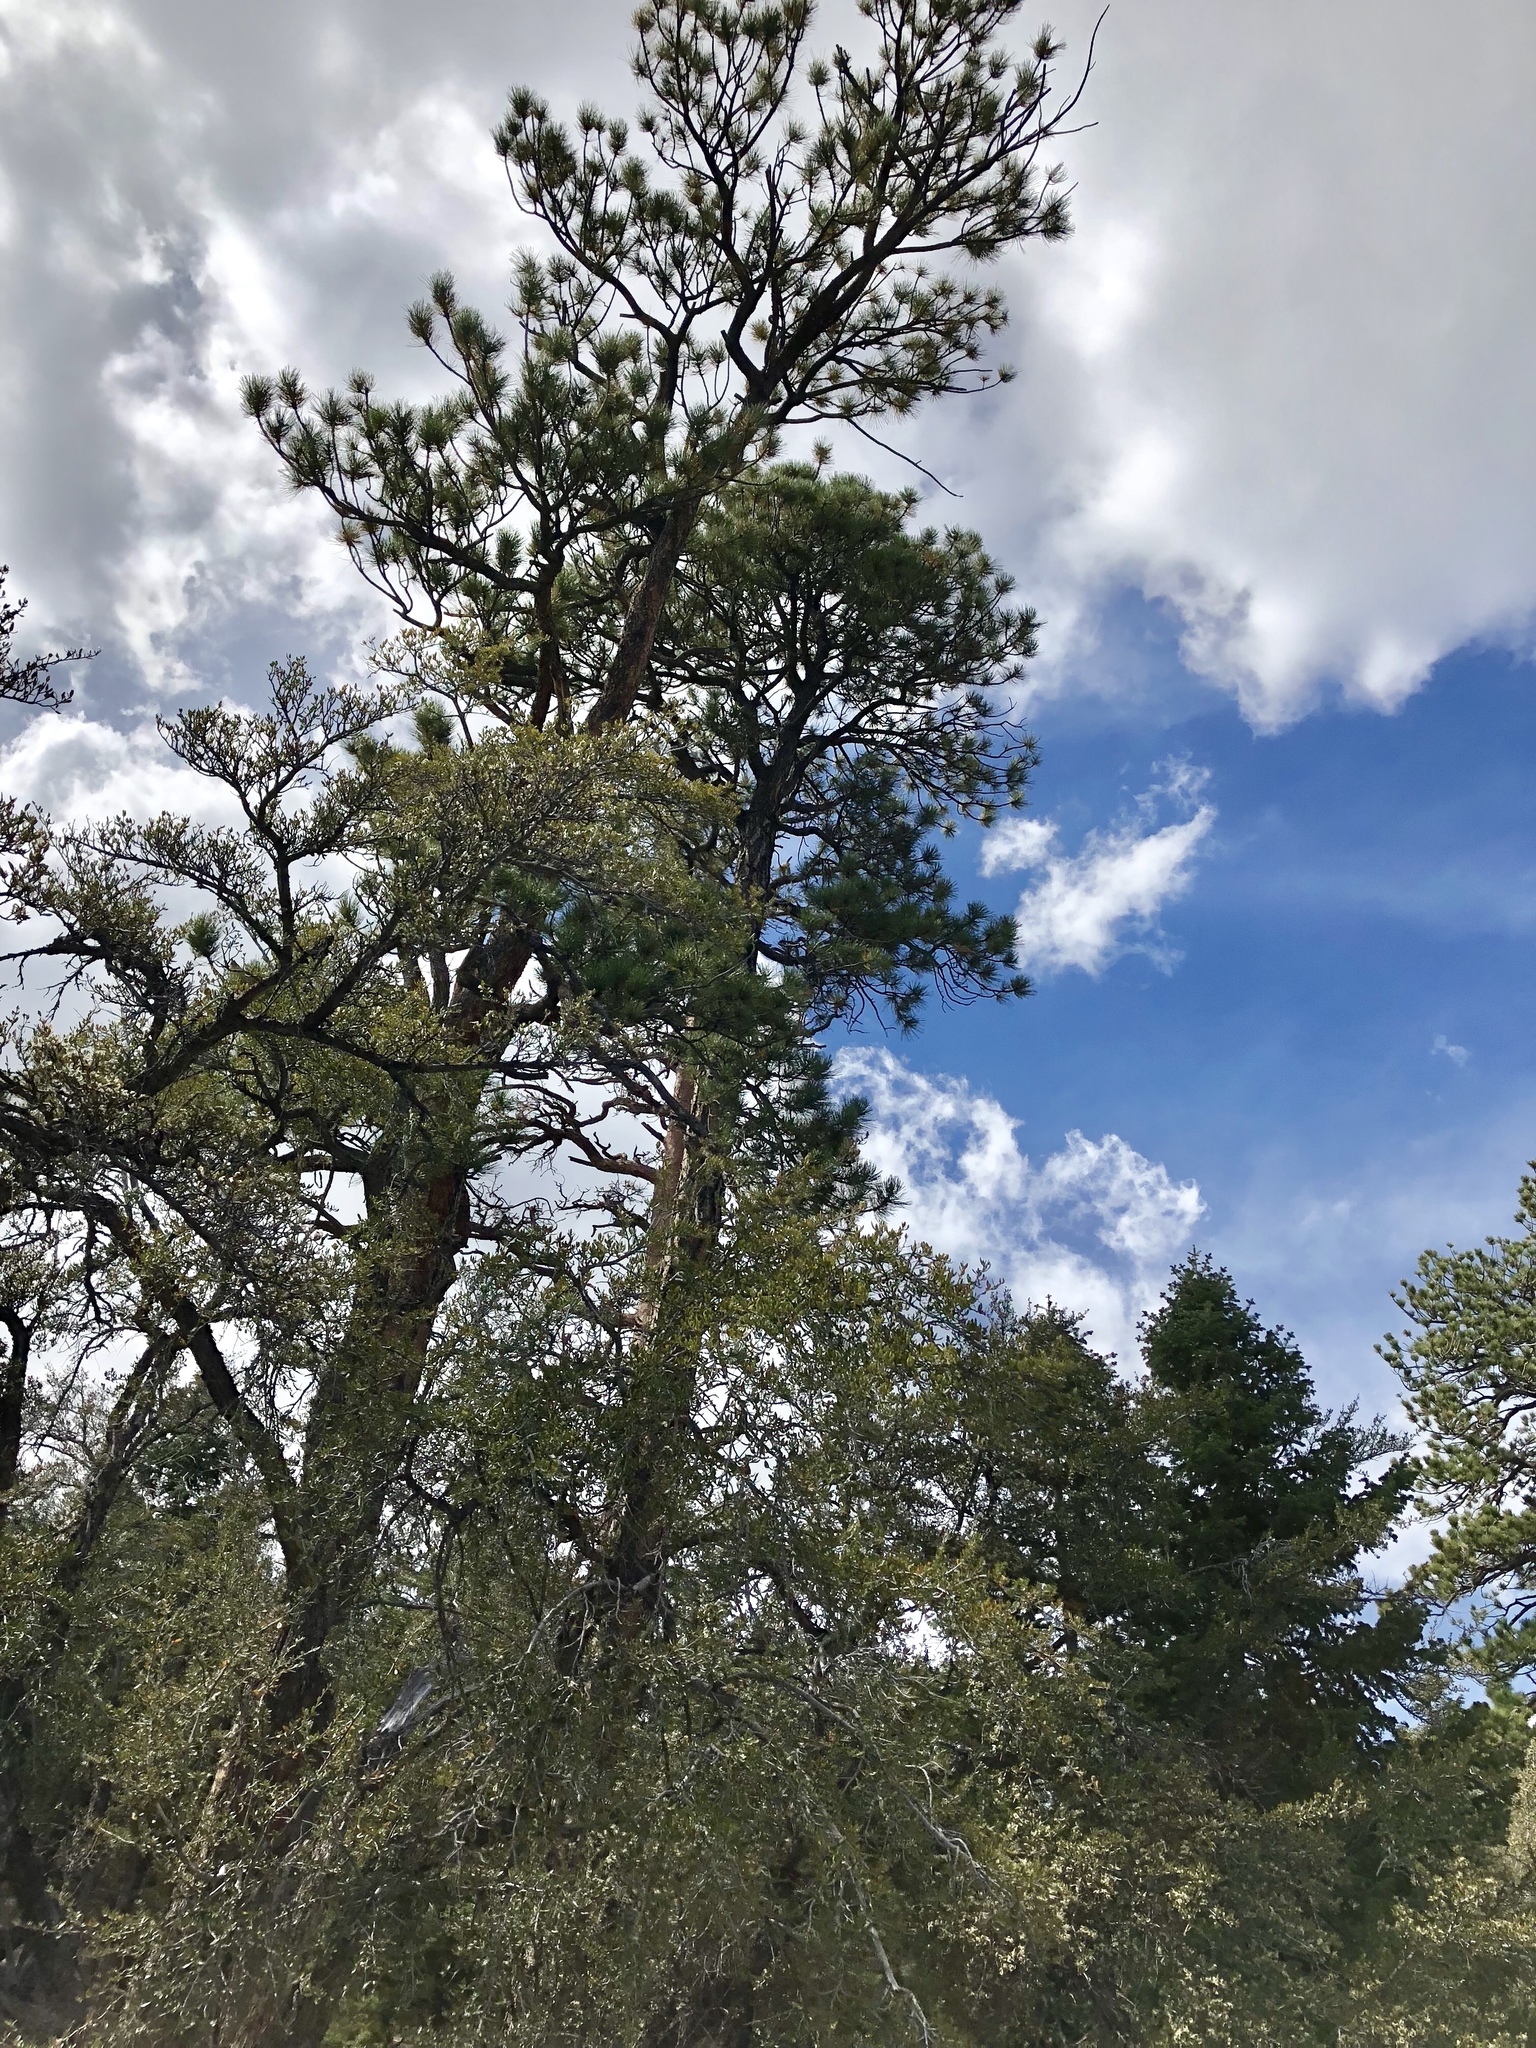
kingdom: Plantae
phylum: Tracheophyta
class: Pinopsida
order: Pinales
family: Pinaceae
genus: Pinus
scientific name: Pinus ponderosa
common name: Western yellow-pine
